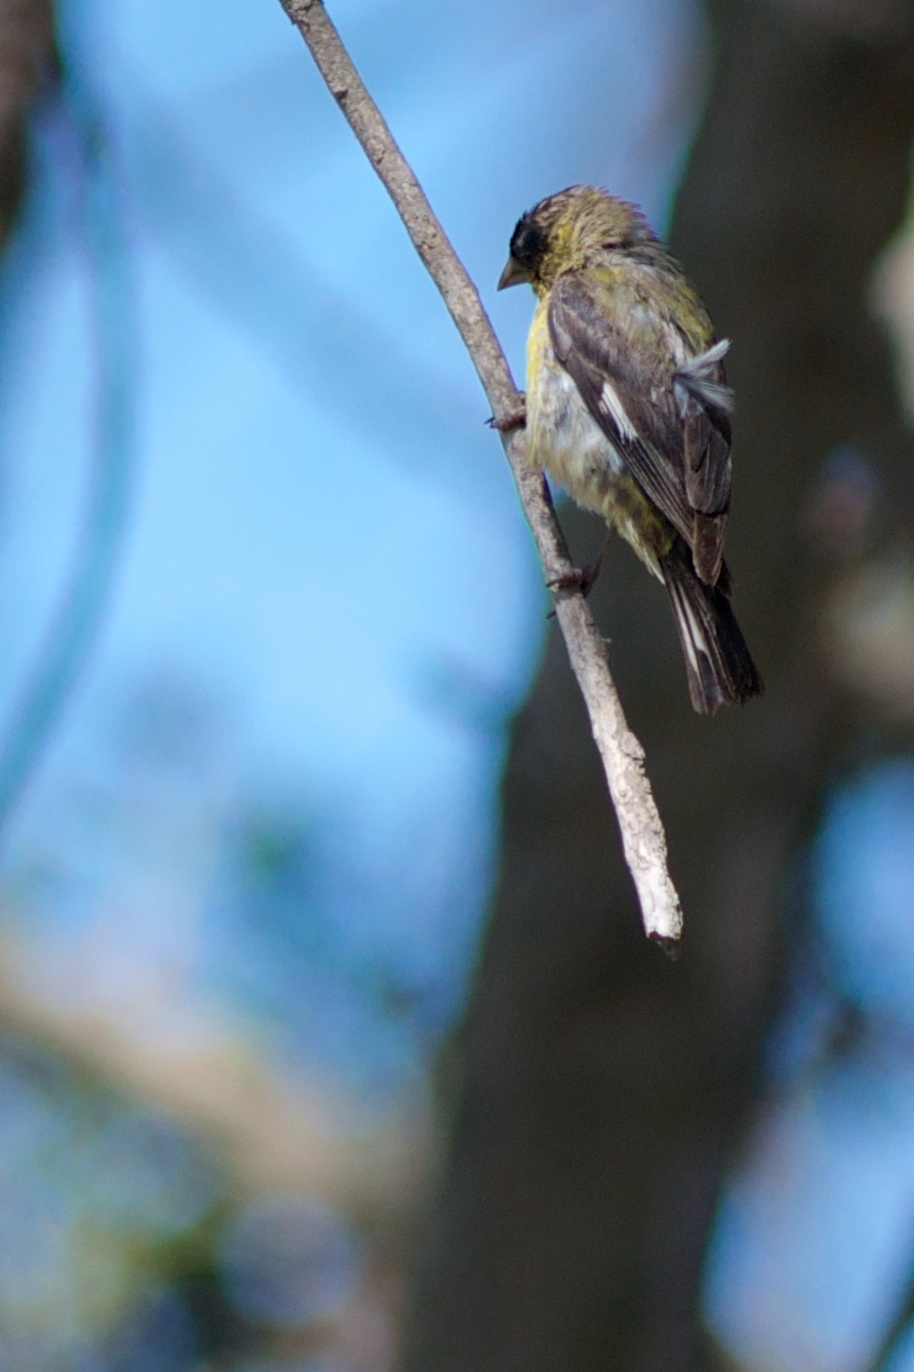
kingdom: Animalia
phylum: Chordata
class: Aves
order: Passeriformes
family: Fringillidae
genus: Spinus
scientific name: Spinus psaltria
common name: Lesser goldfinch
